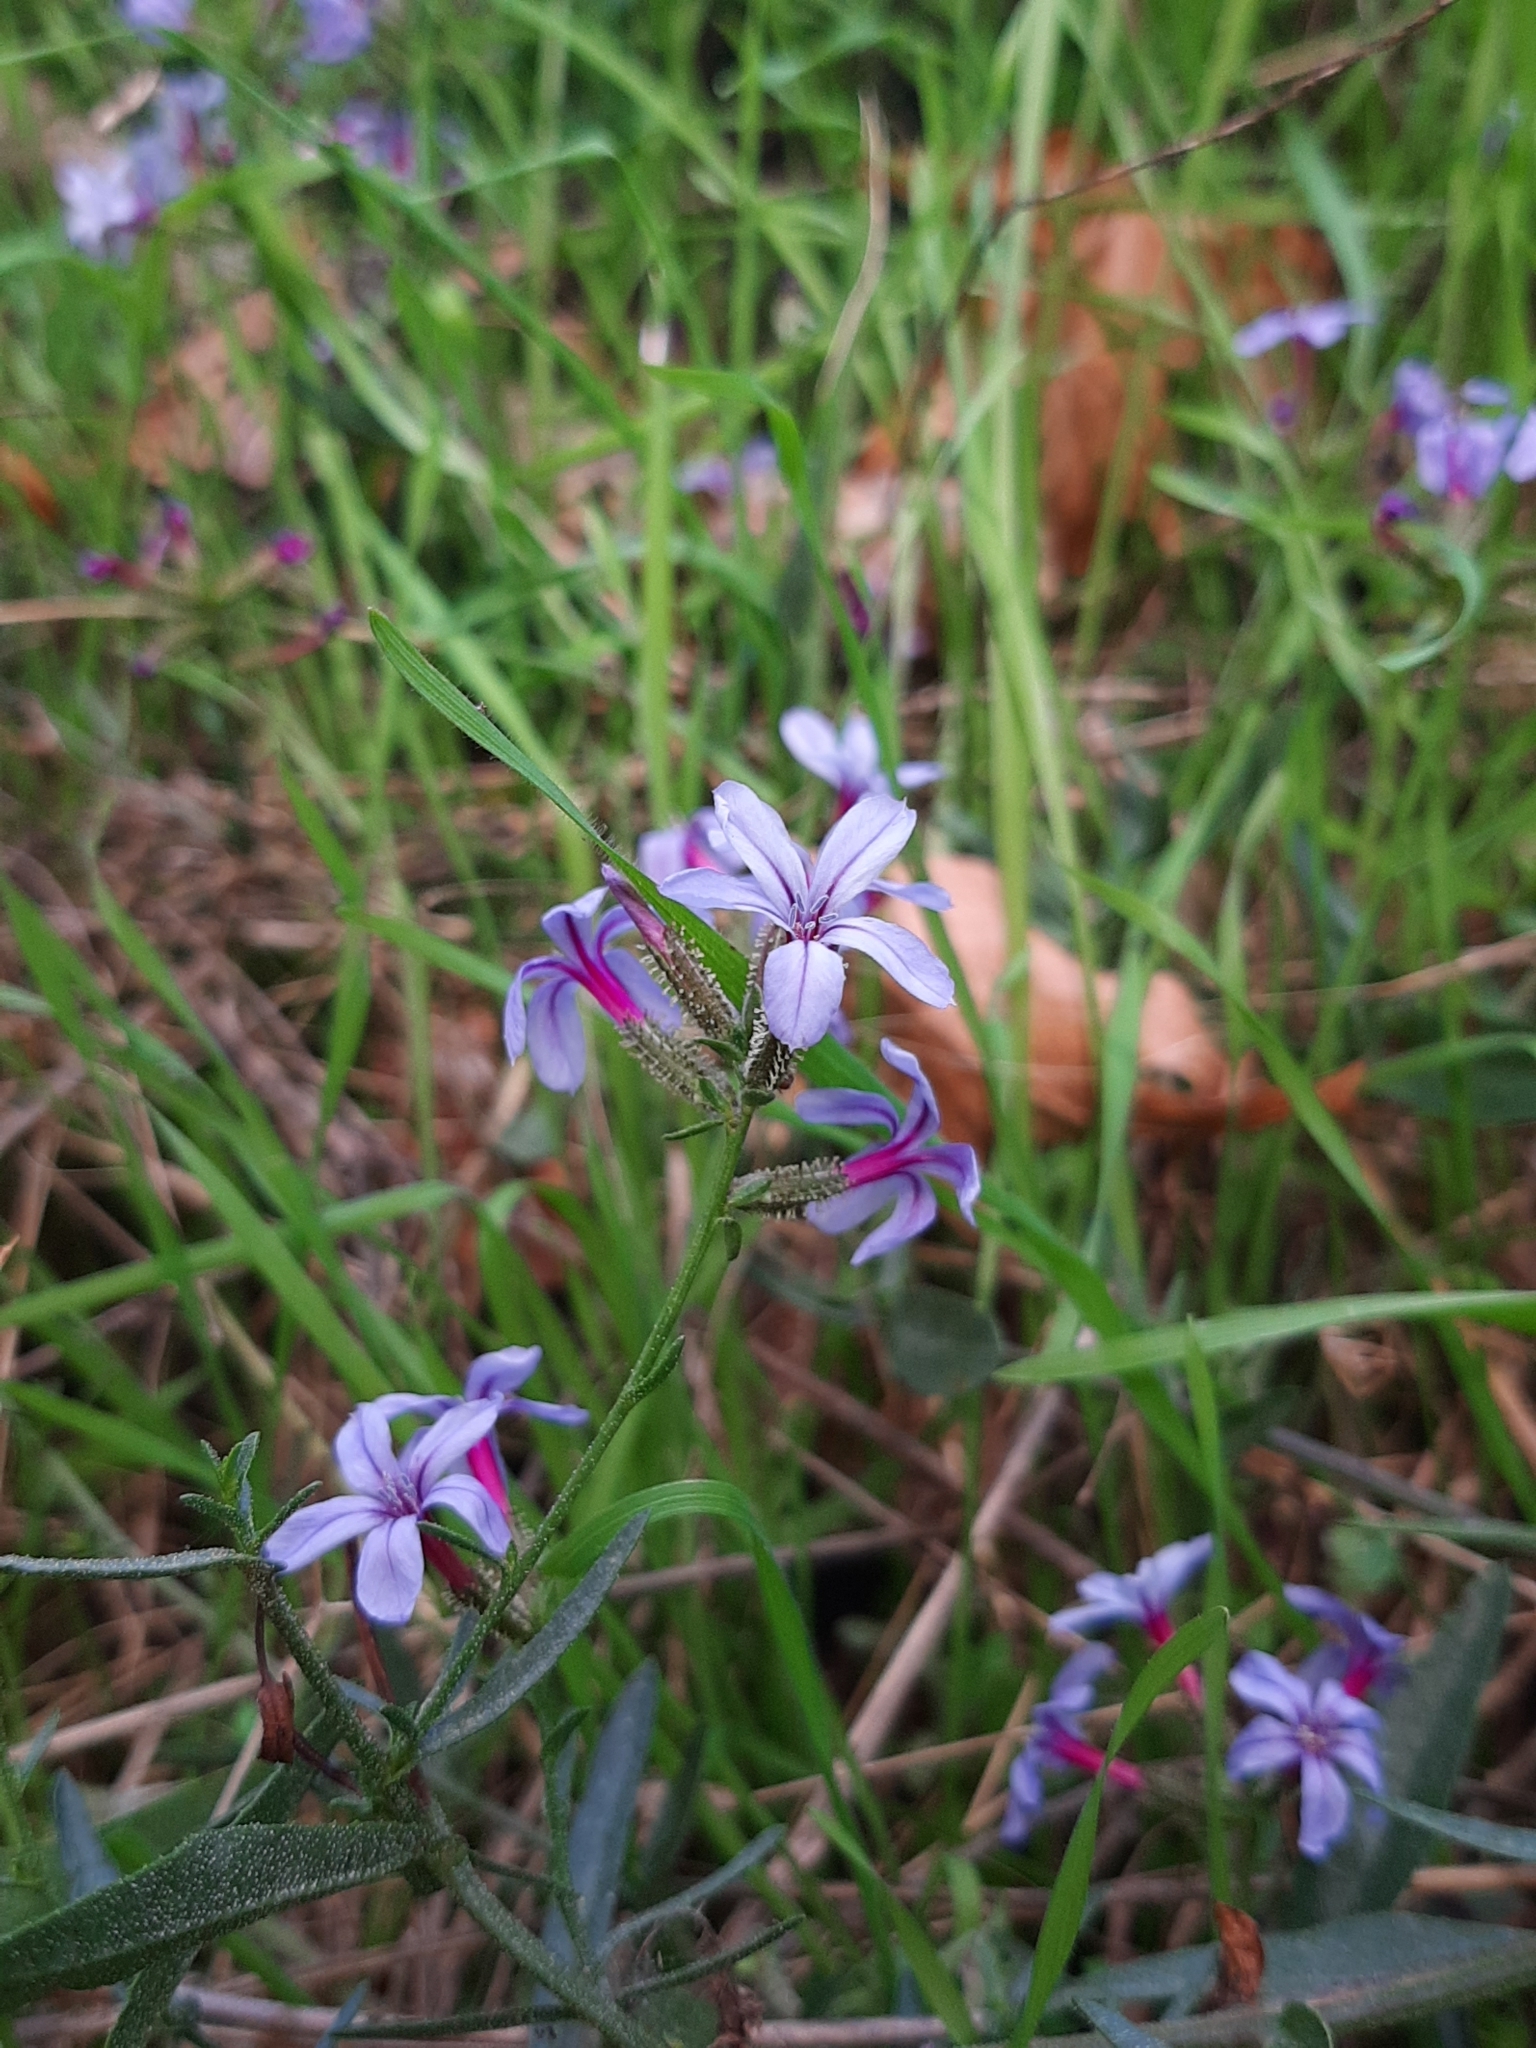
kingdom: Plantae
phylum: Tracheophyta
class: Magnoliopsida
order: Caryophyllales
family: Plumbaginaceae
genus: Plumbago
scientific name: Plumbago europaea
